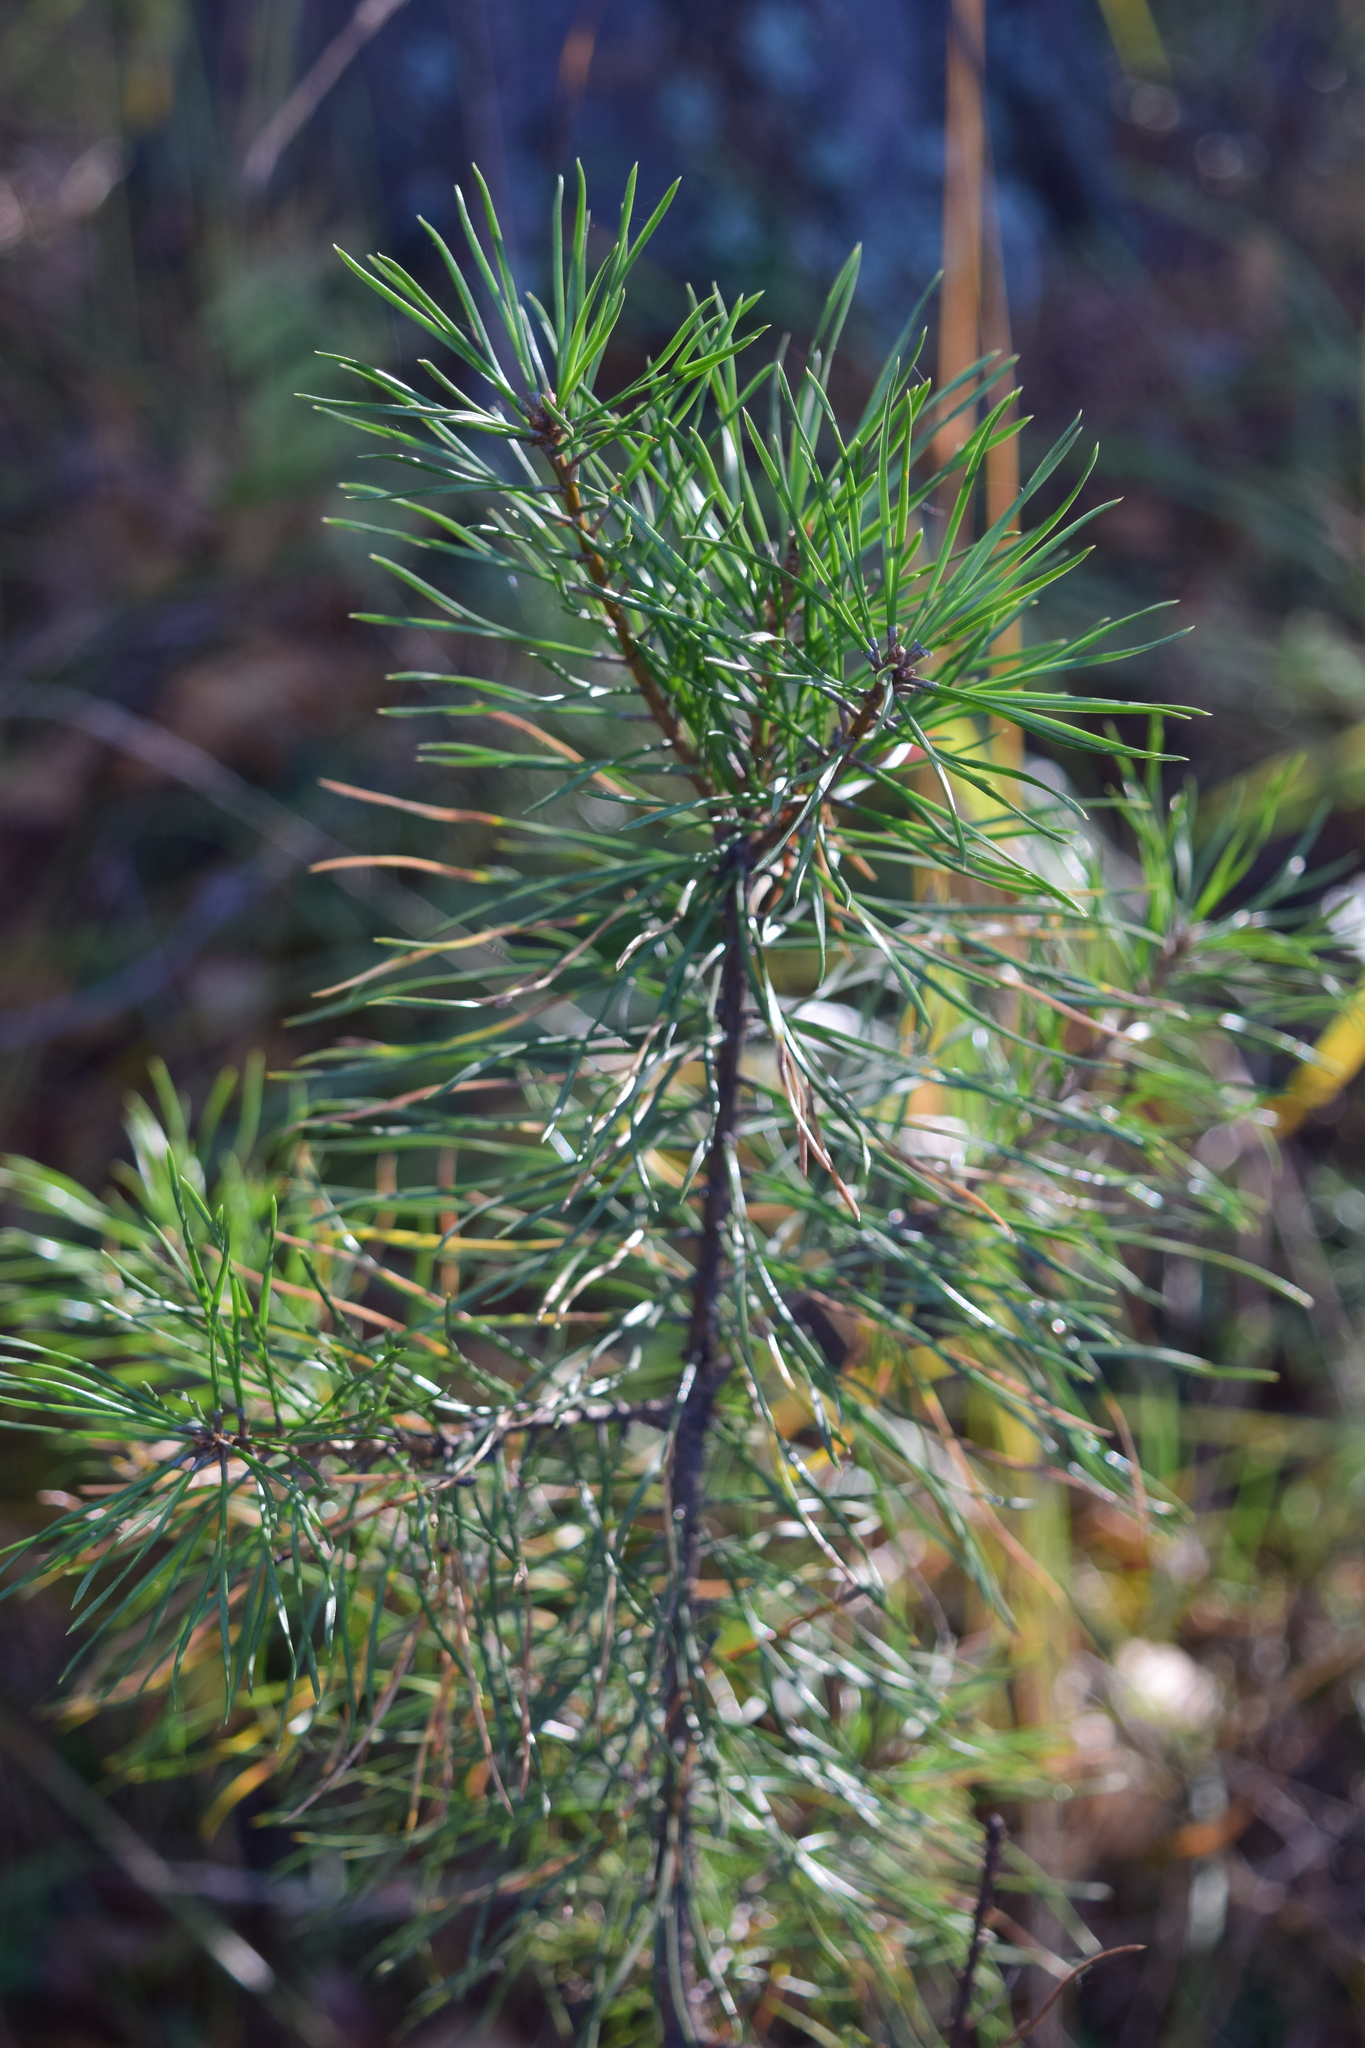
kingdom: Plantae
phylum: Tracheophyta
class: Pinopsida
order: Pinales
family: Pinaceae
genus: Pinus
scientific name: Pinus sylvestris
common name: Scots pine
